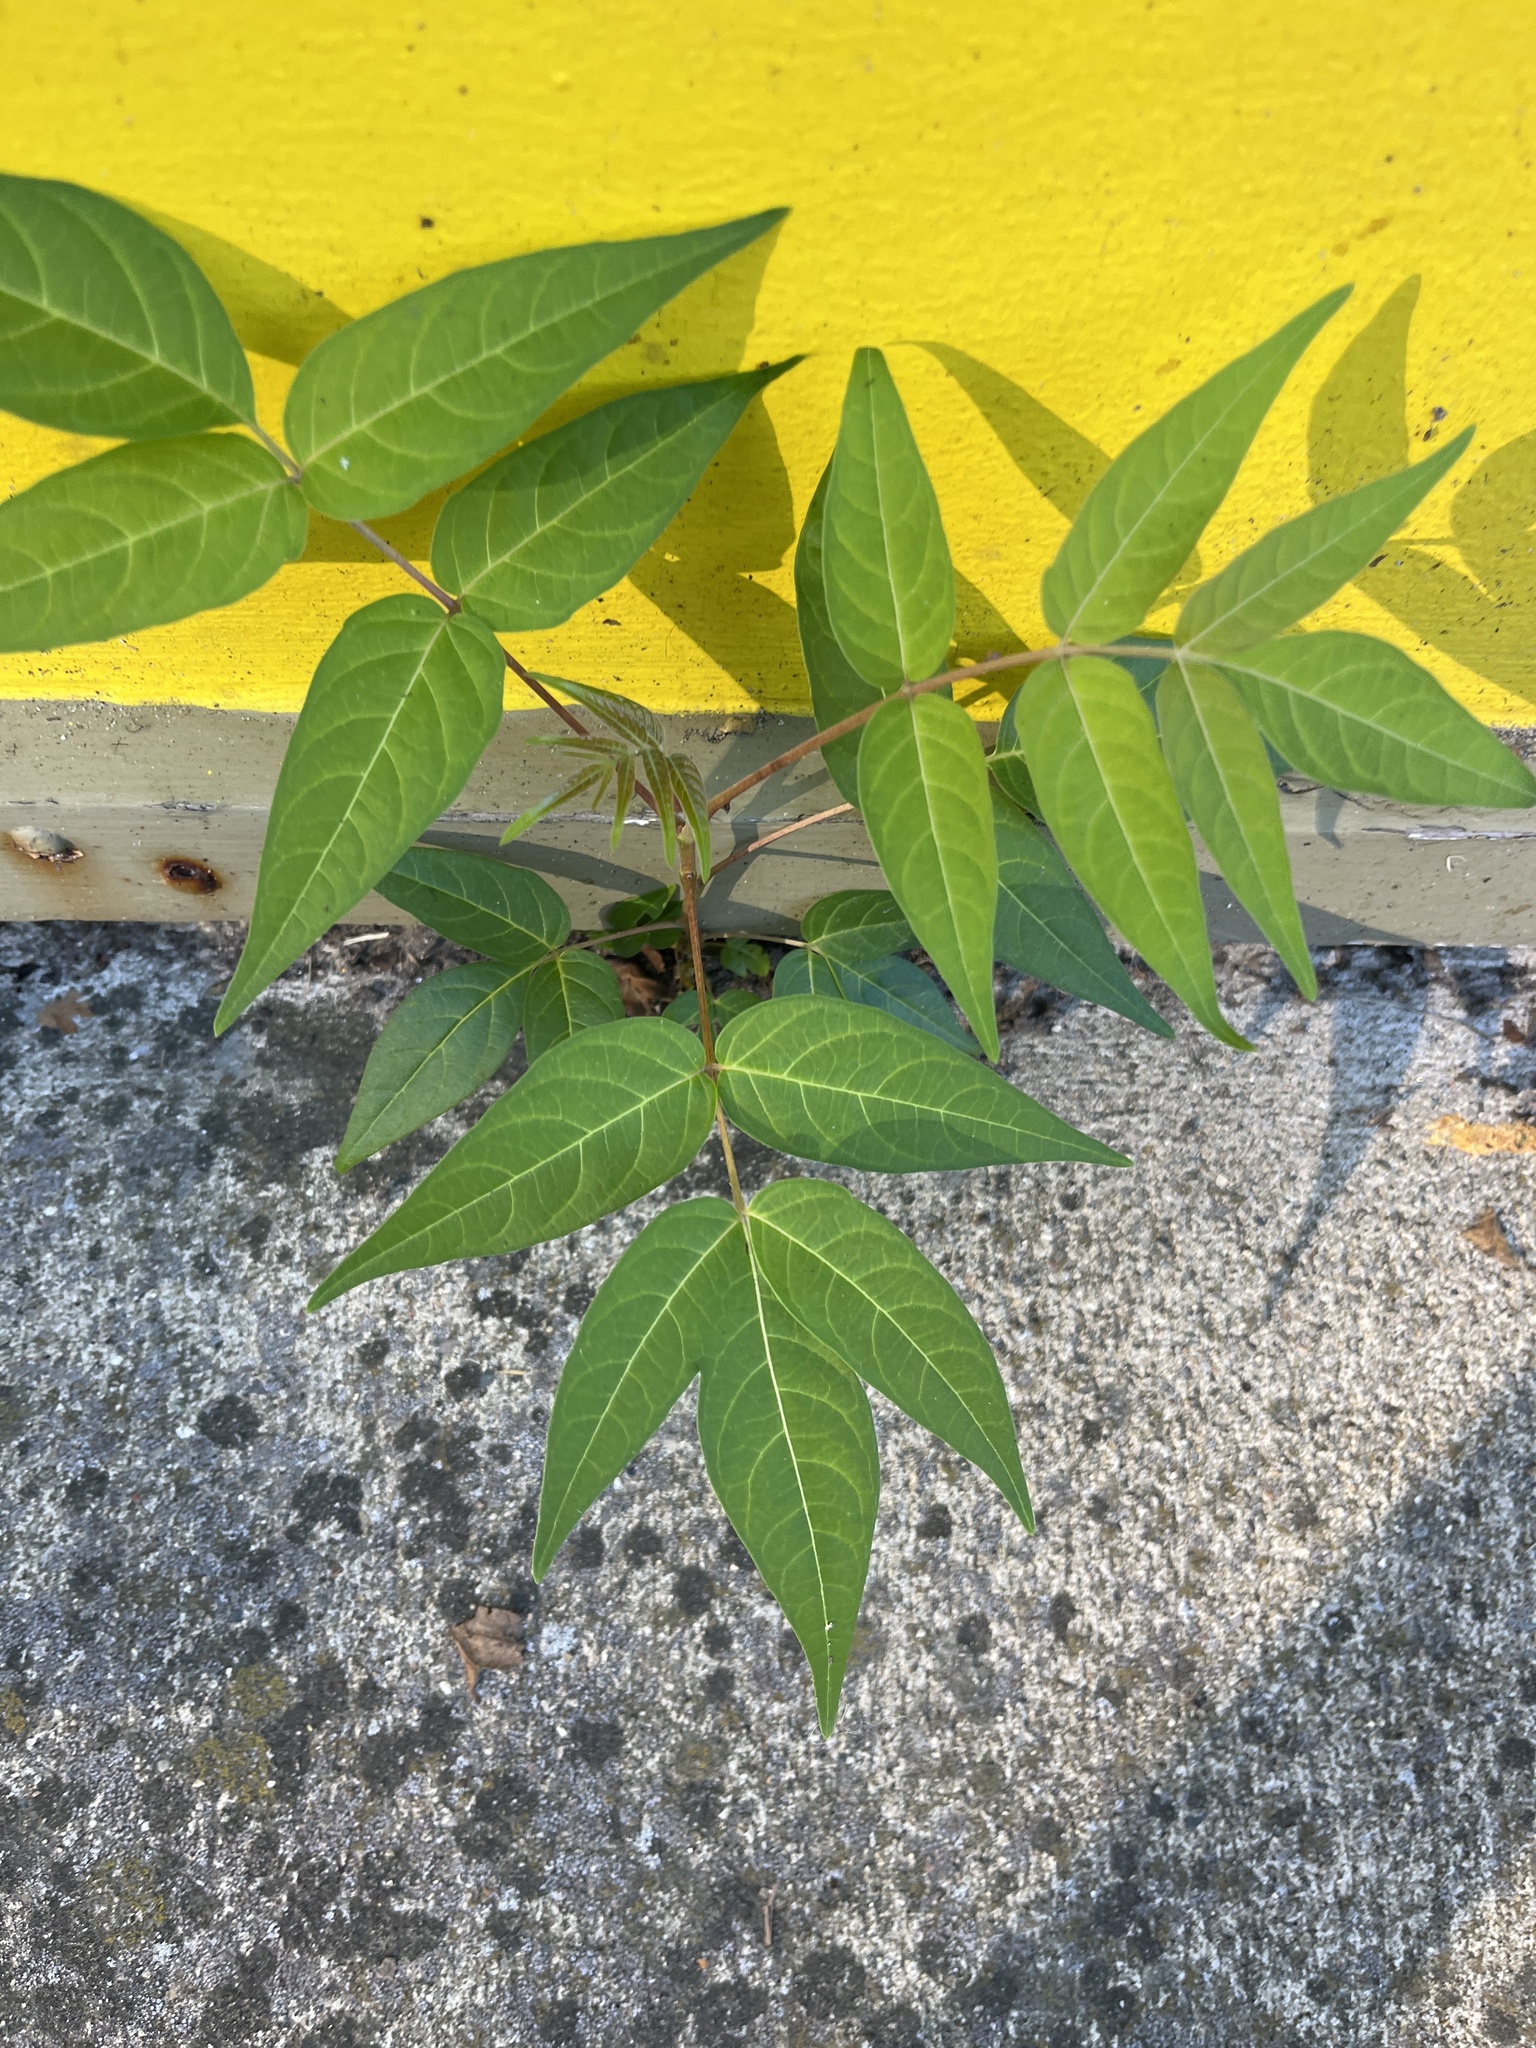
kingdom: Plantae
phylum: Tracheophyta
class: Magnoliopsida
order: Sapindales
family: Simaroubaceae
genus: Ailanthus
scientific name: Ailanthus altissima
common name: Tree-of-heaven
